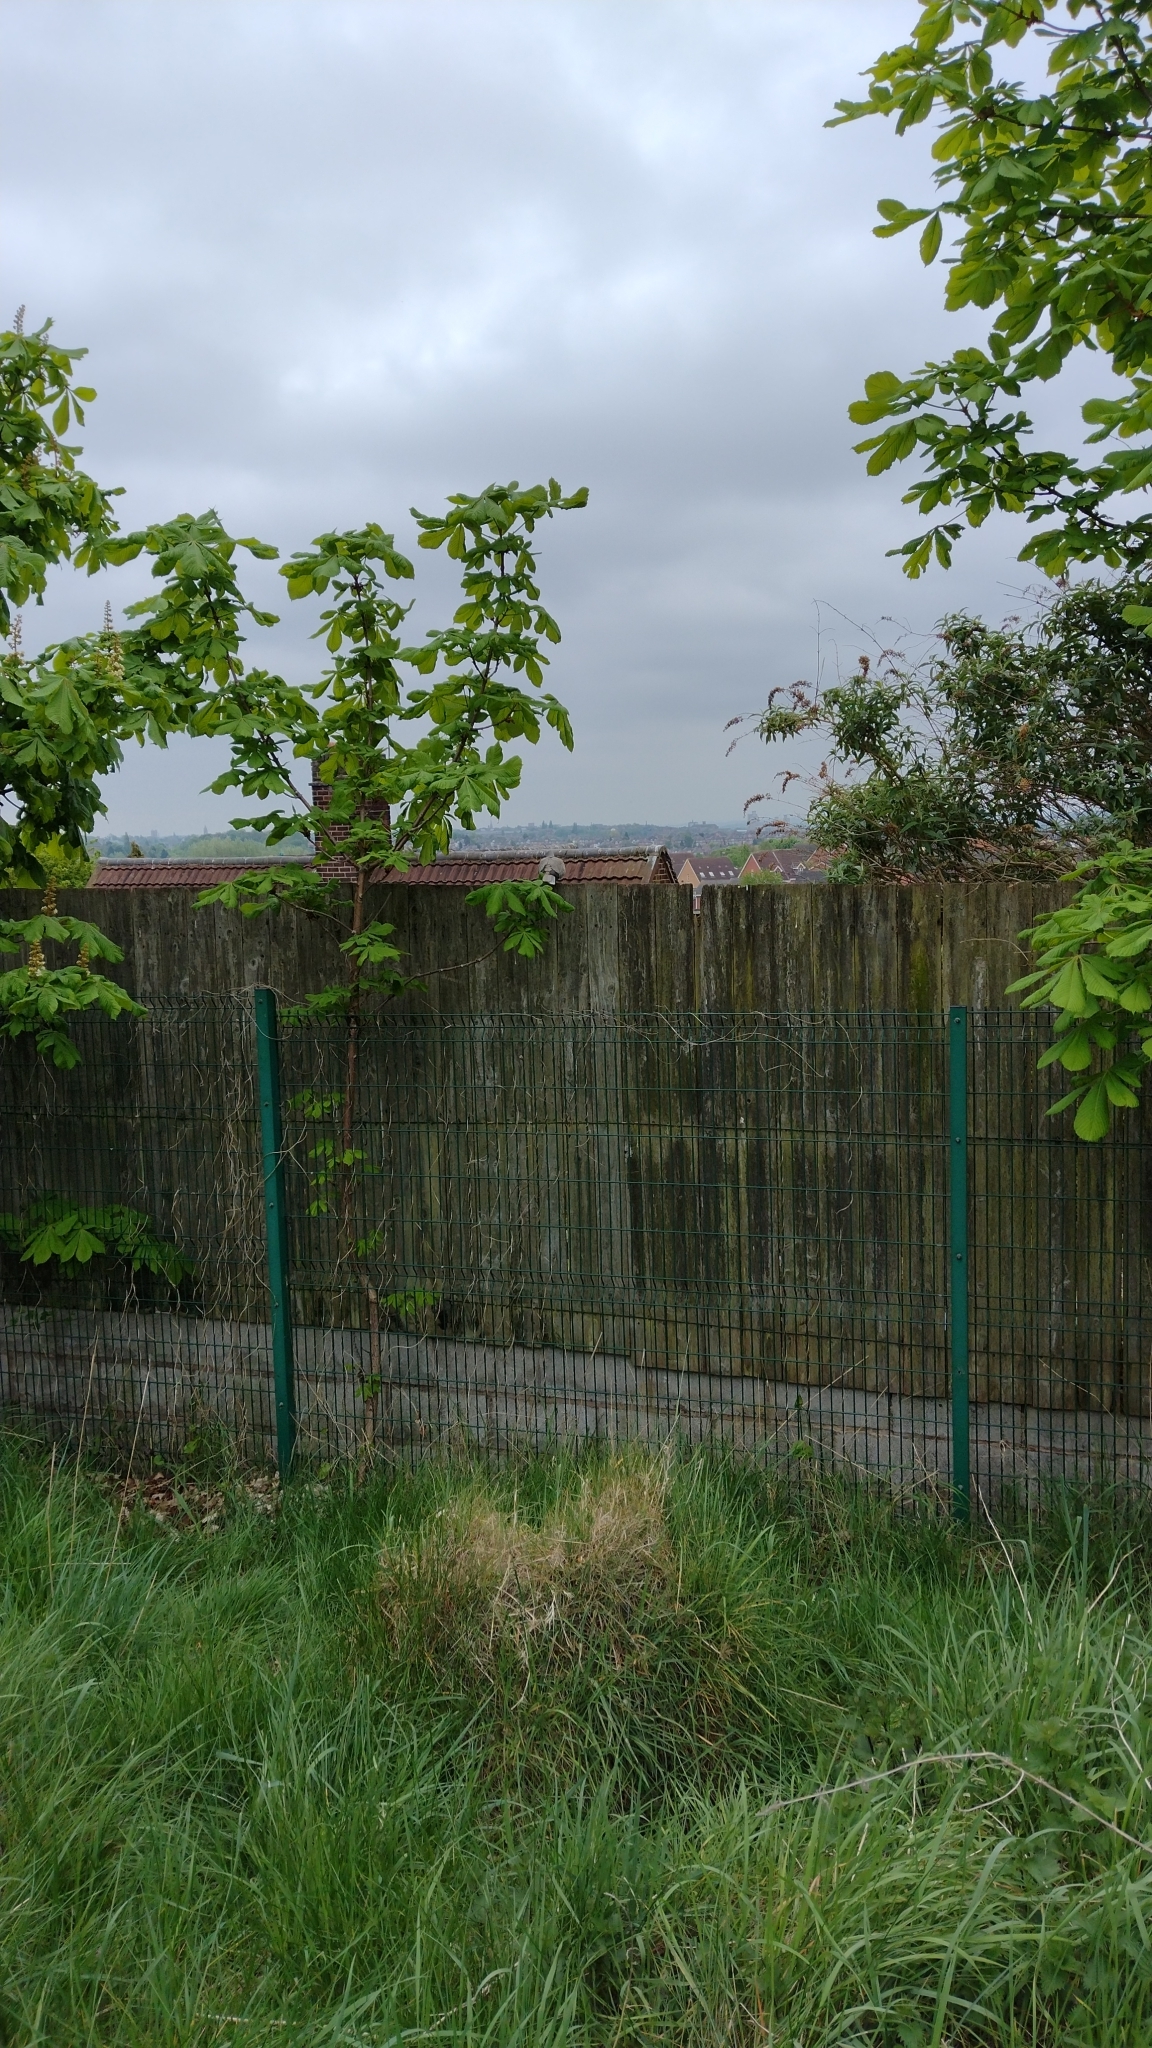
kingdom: Animalia
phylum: Chordata
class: Aves
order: Columbiformes
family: Columbidae
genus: Streptopelia
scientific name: Streptopelia decaocto
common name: Eurasian collared dove
